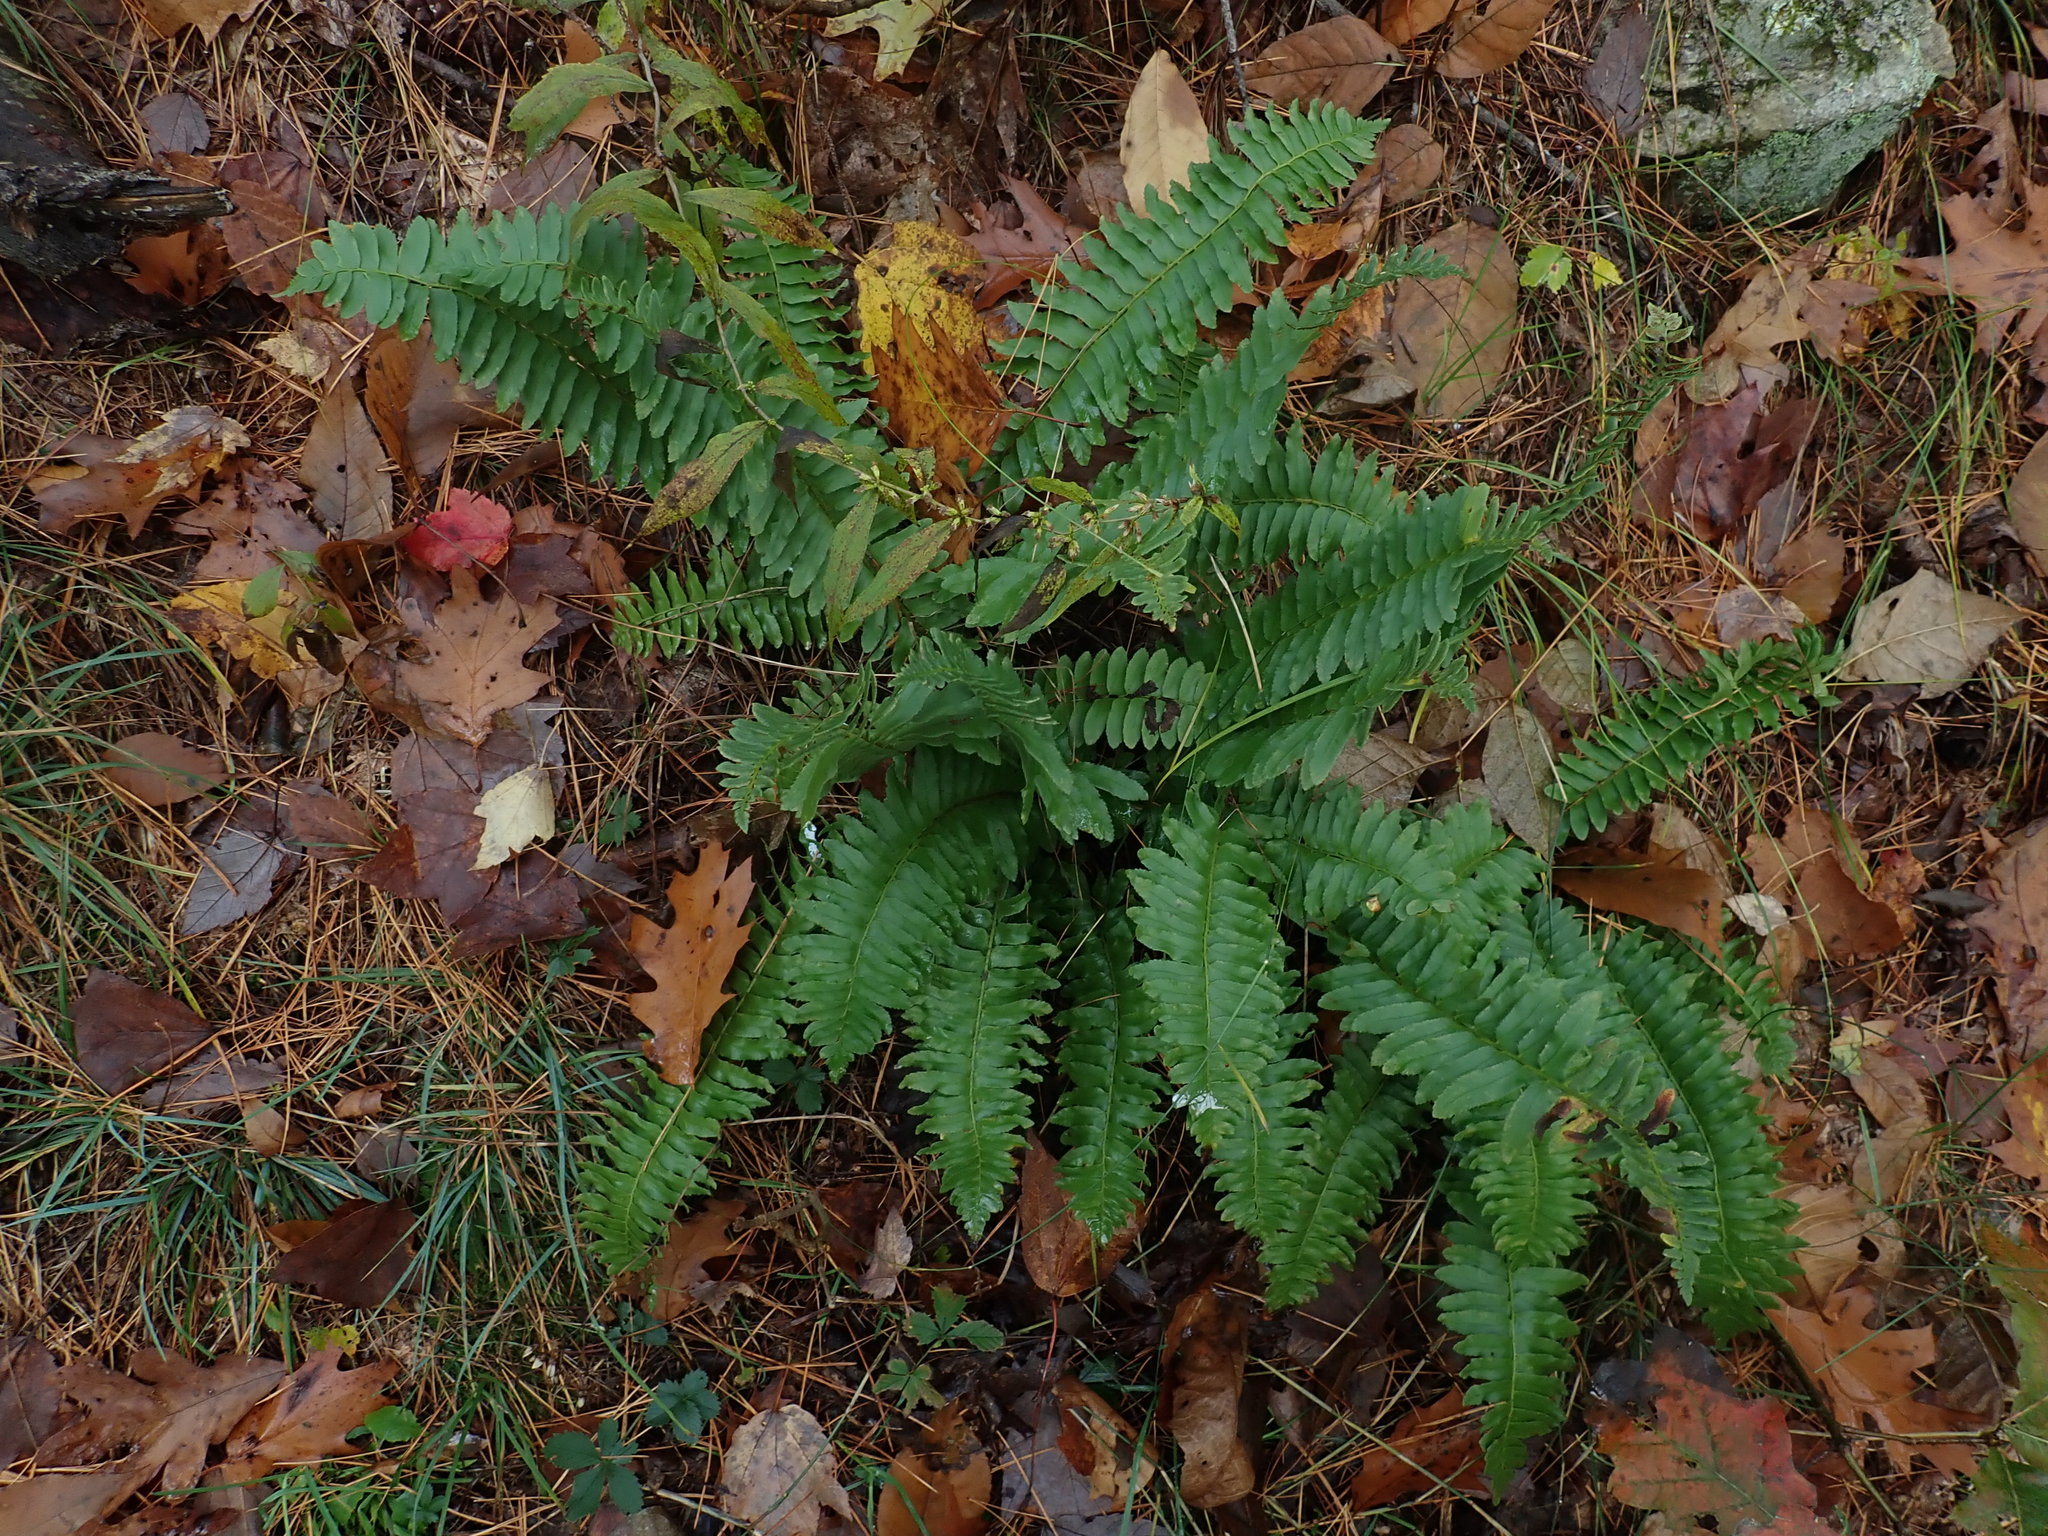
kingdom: Plantae
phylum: Tracheophyta
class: Polypodiopsida
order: Polypodiales
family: Dryopteridaceae
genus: Polystichum
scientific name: Polystichum acrostichoides
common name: Christmas fern
